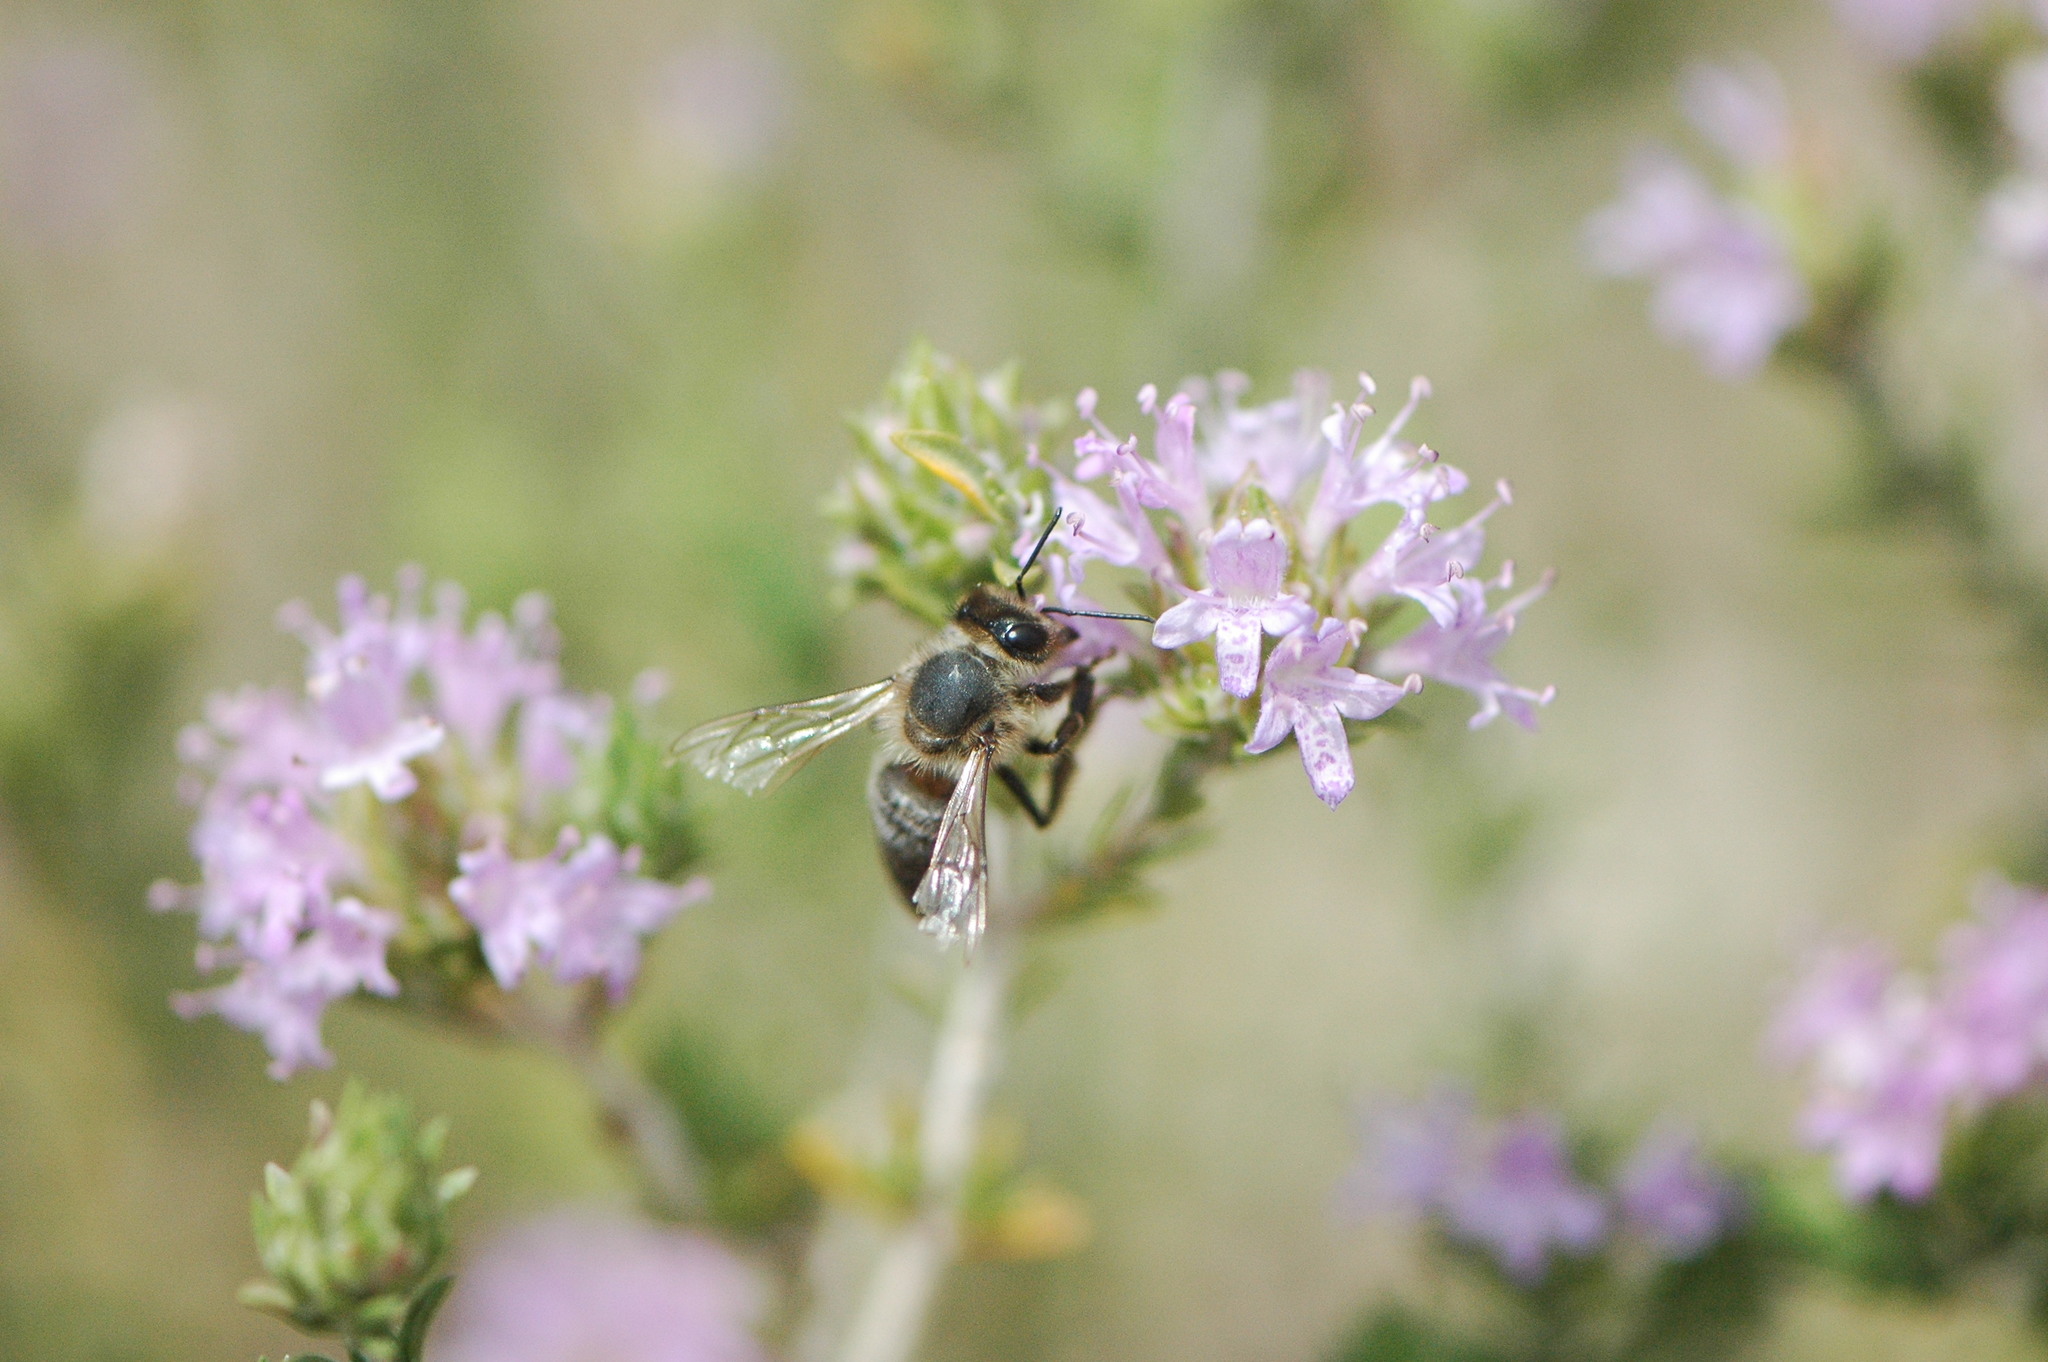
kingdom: Animalia
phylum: Arthropoda
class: Insecta
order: Hymenoptera
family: Apidae
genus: Apis
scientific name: Apis mellifera
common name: Honey bee
